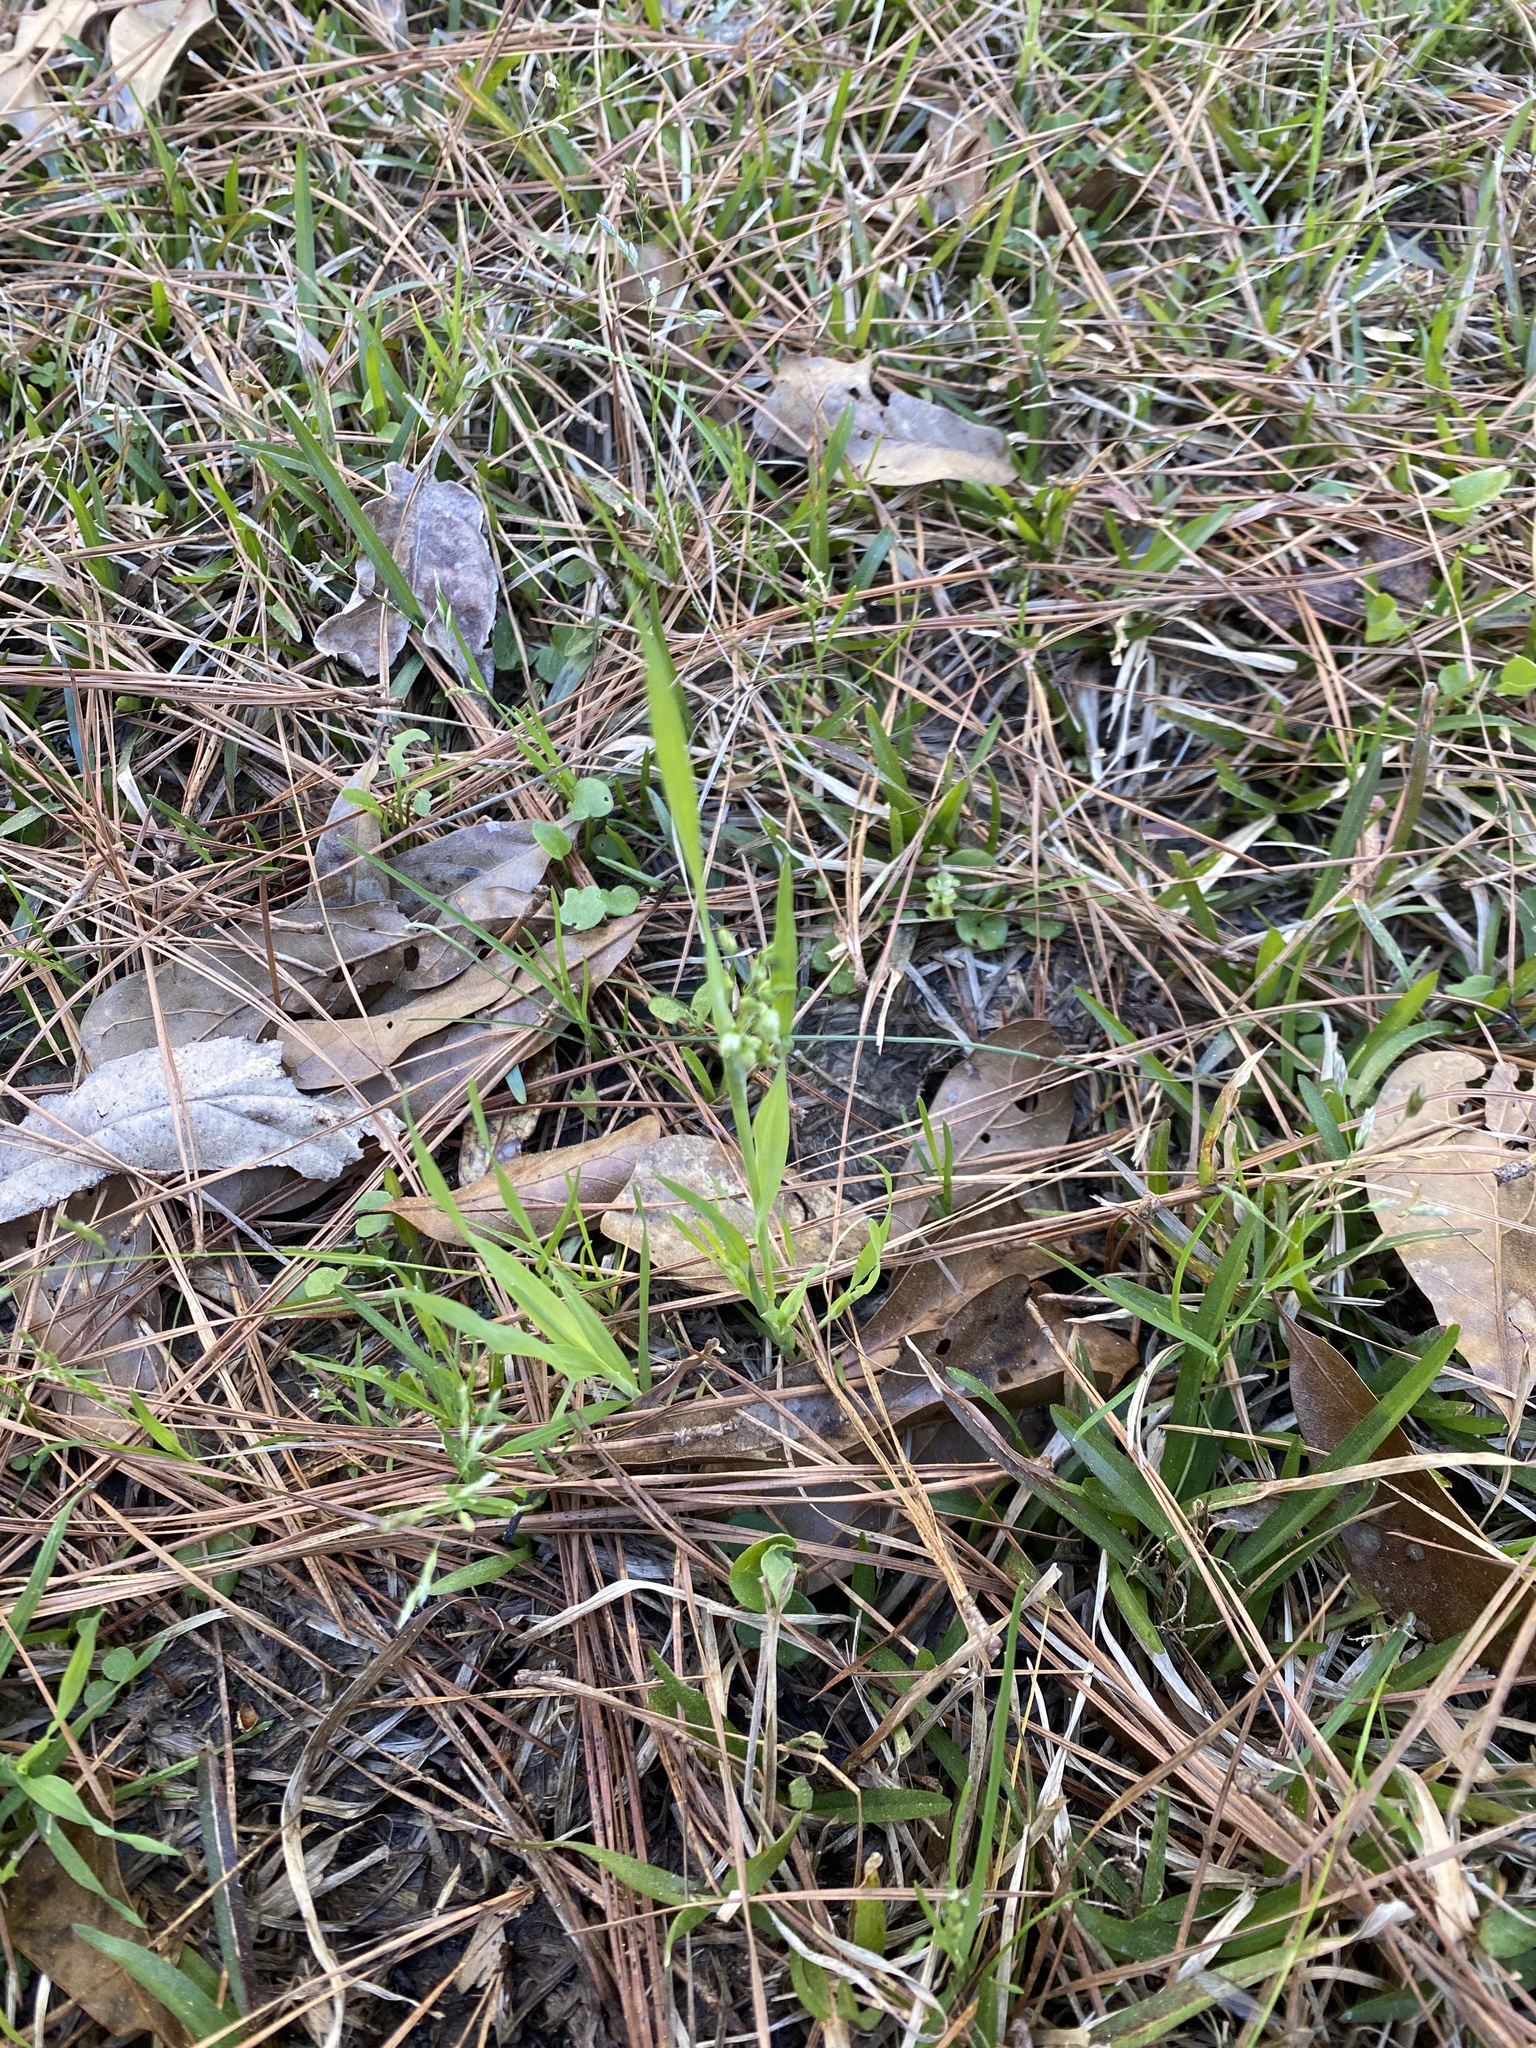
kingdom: Plantae
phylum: Tracheophyta
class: Liliopsida
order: Poales
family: Poaceae
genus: Briza
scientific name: Briza minor
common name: Lesser quaking-grass
